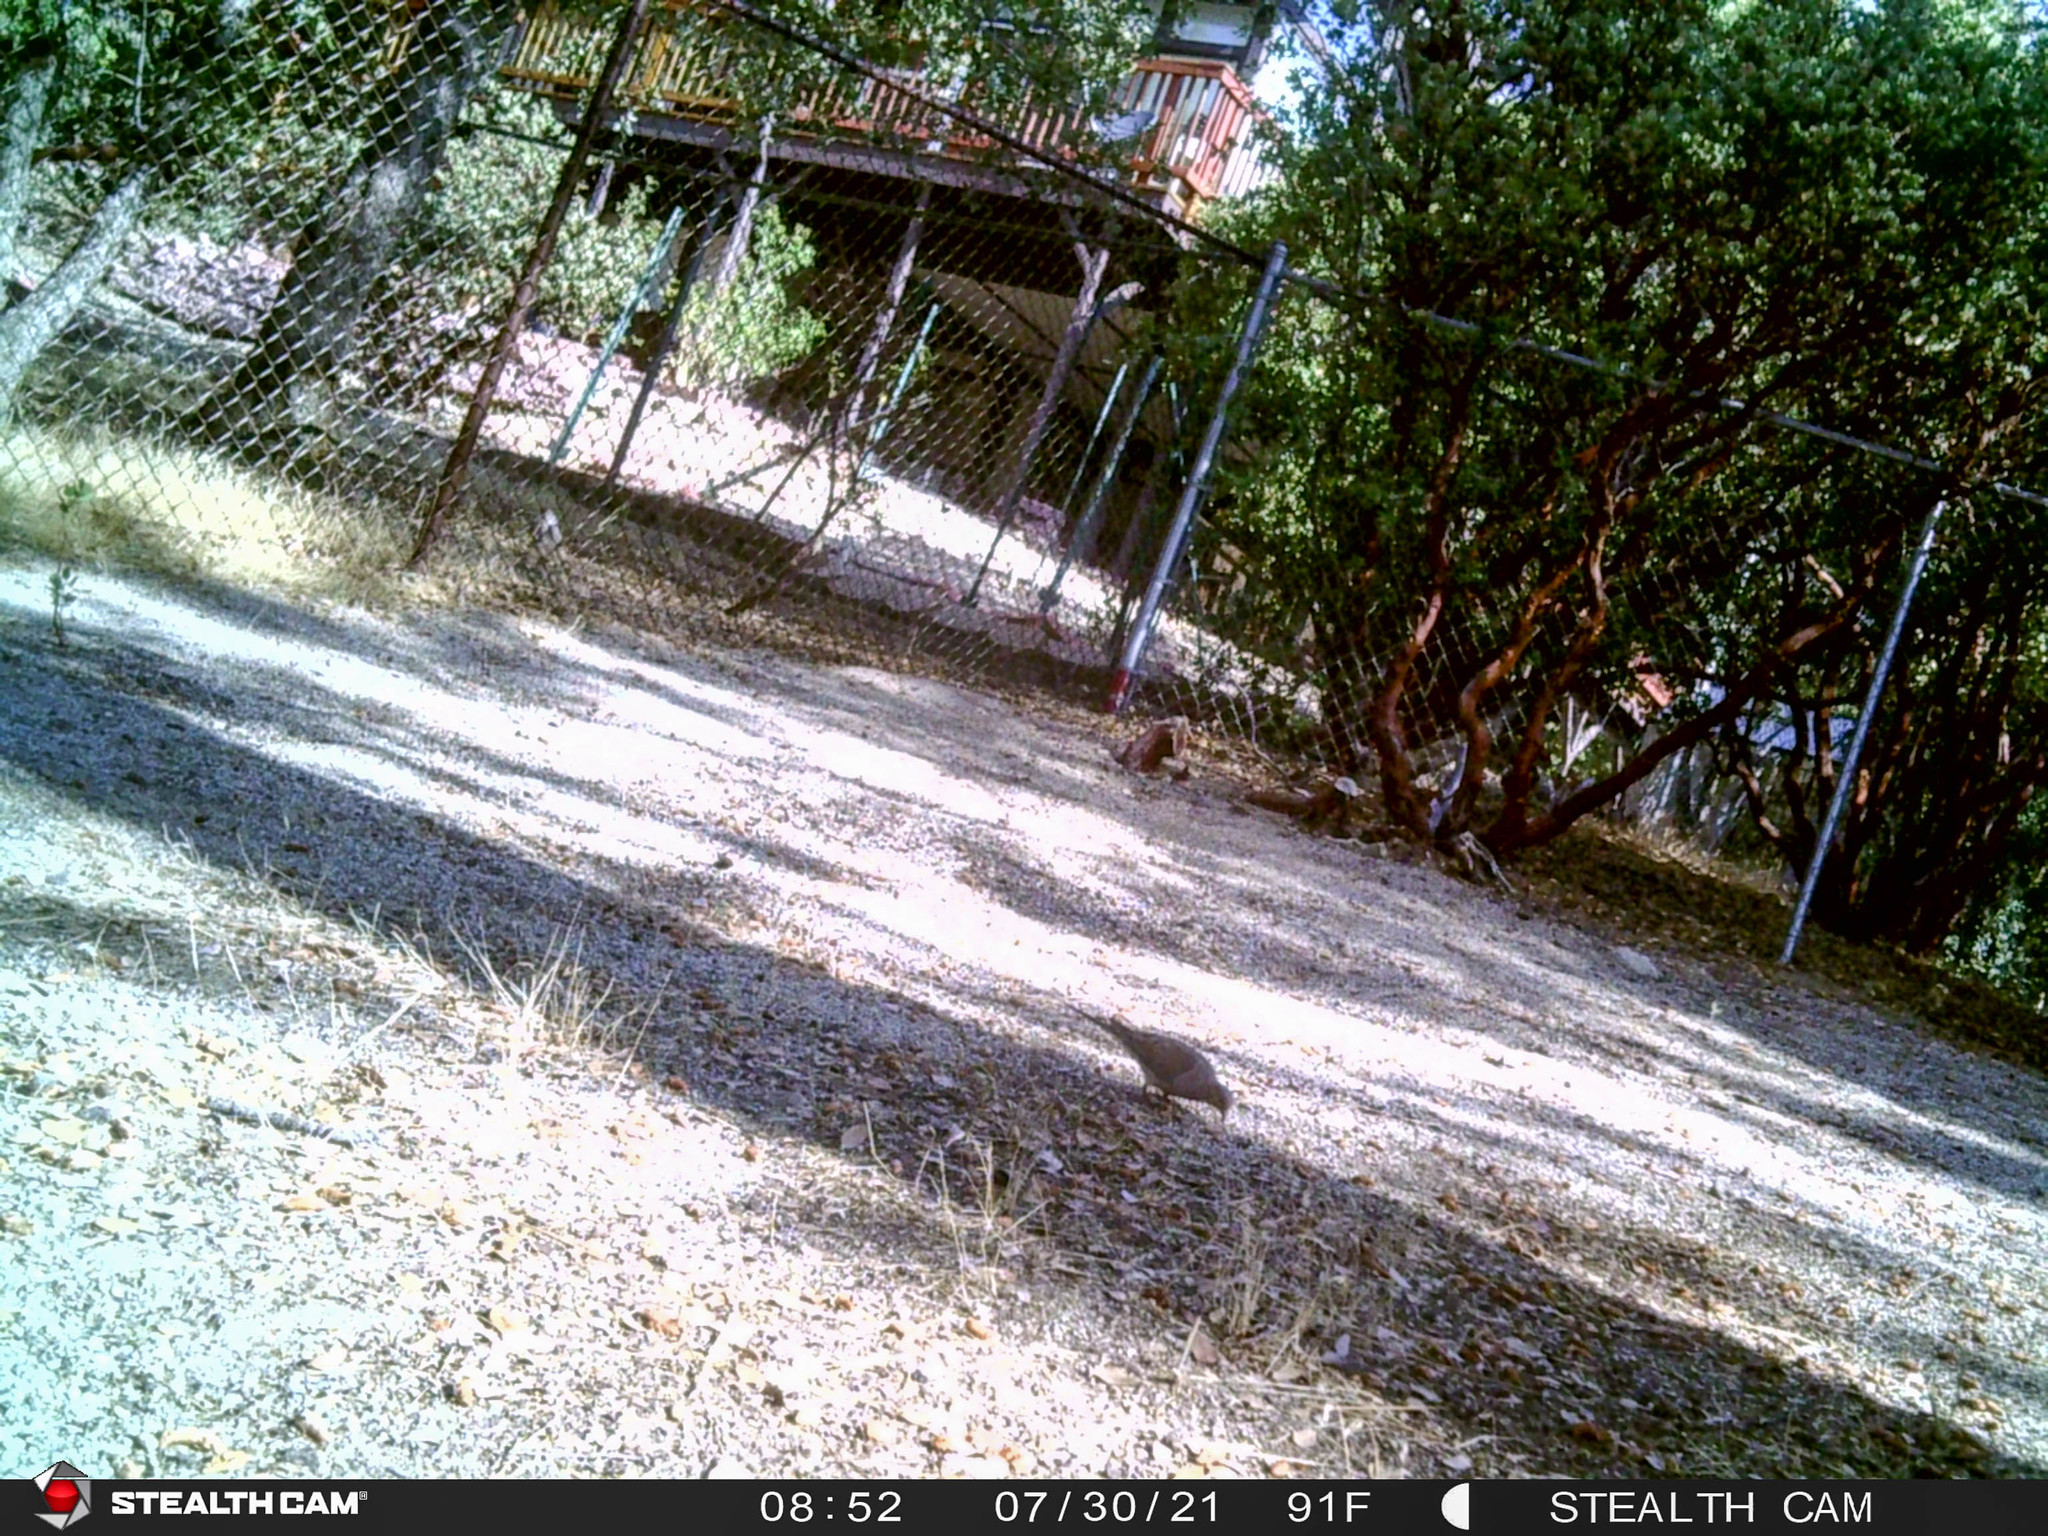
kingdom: Animalia
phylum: Chordata
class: Aves
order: Columbiformes
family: Columbidae
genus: Zenaida
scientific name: Zenaida macroura
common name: Mourning dove
